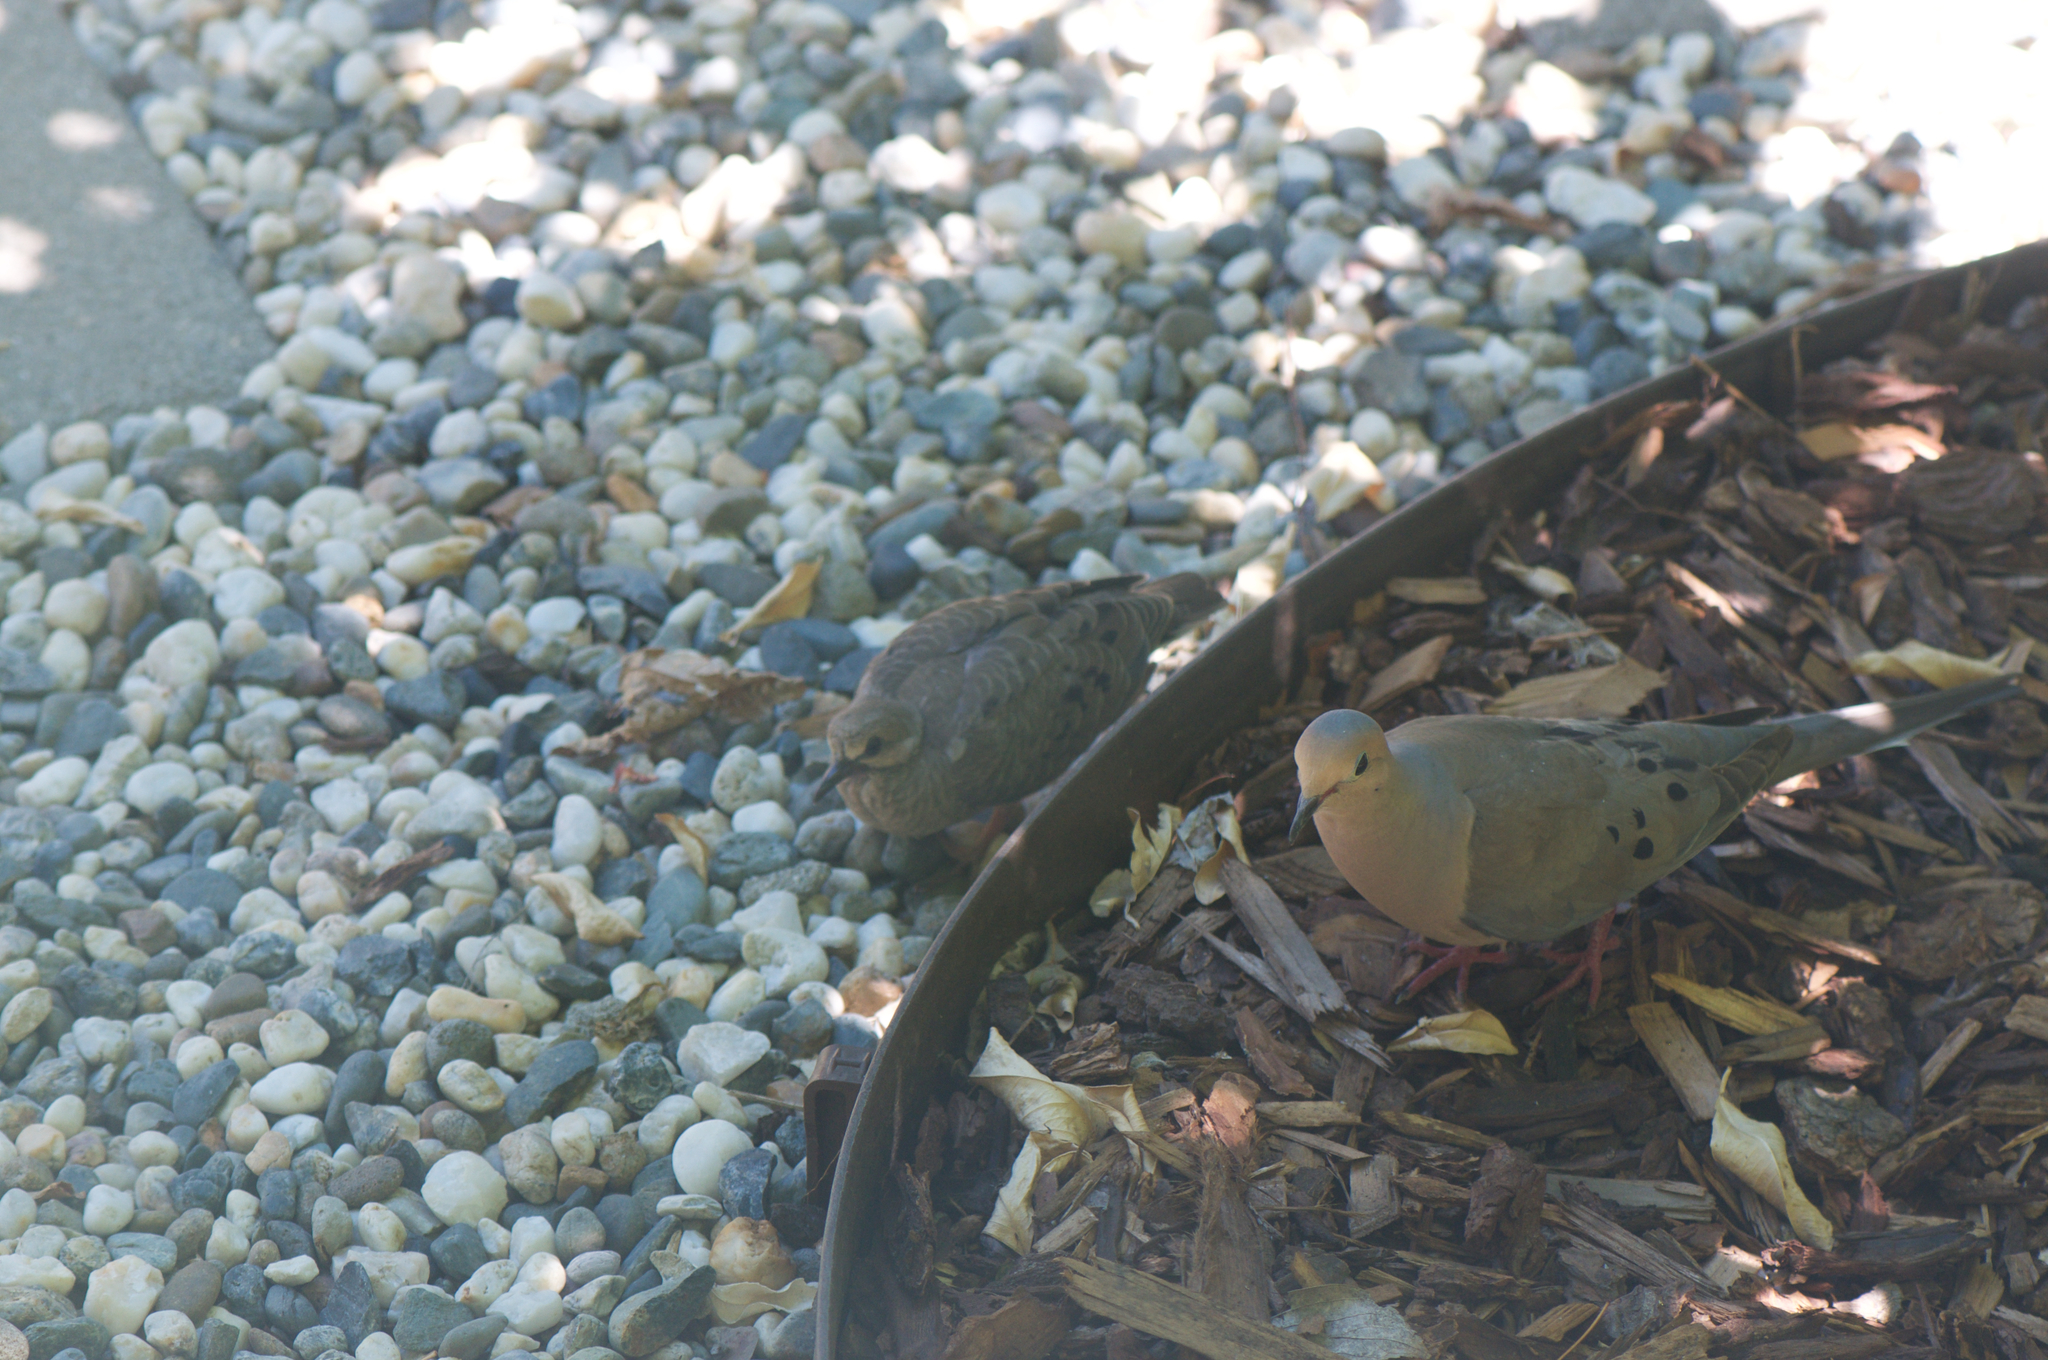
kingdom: Animalia
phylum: Chordata
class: Aves
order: Columbiformes
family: Columbidae
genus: Zenaida
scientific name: Zenaida macroura
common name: Mourning dove
